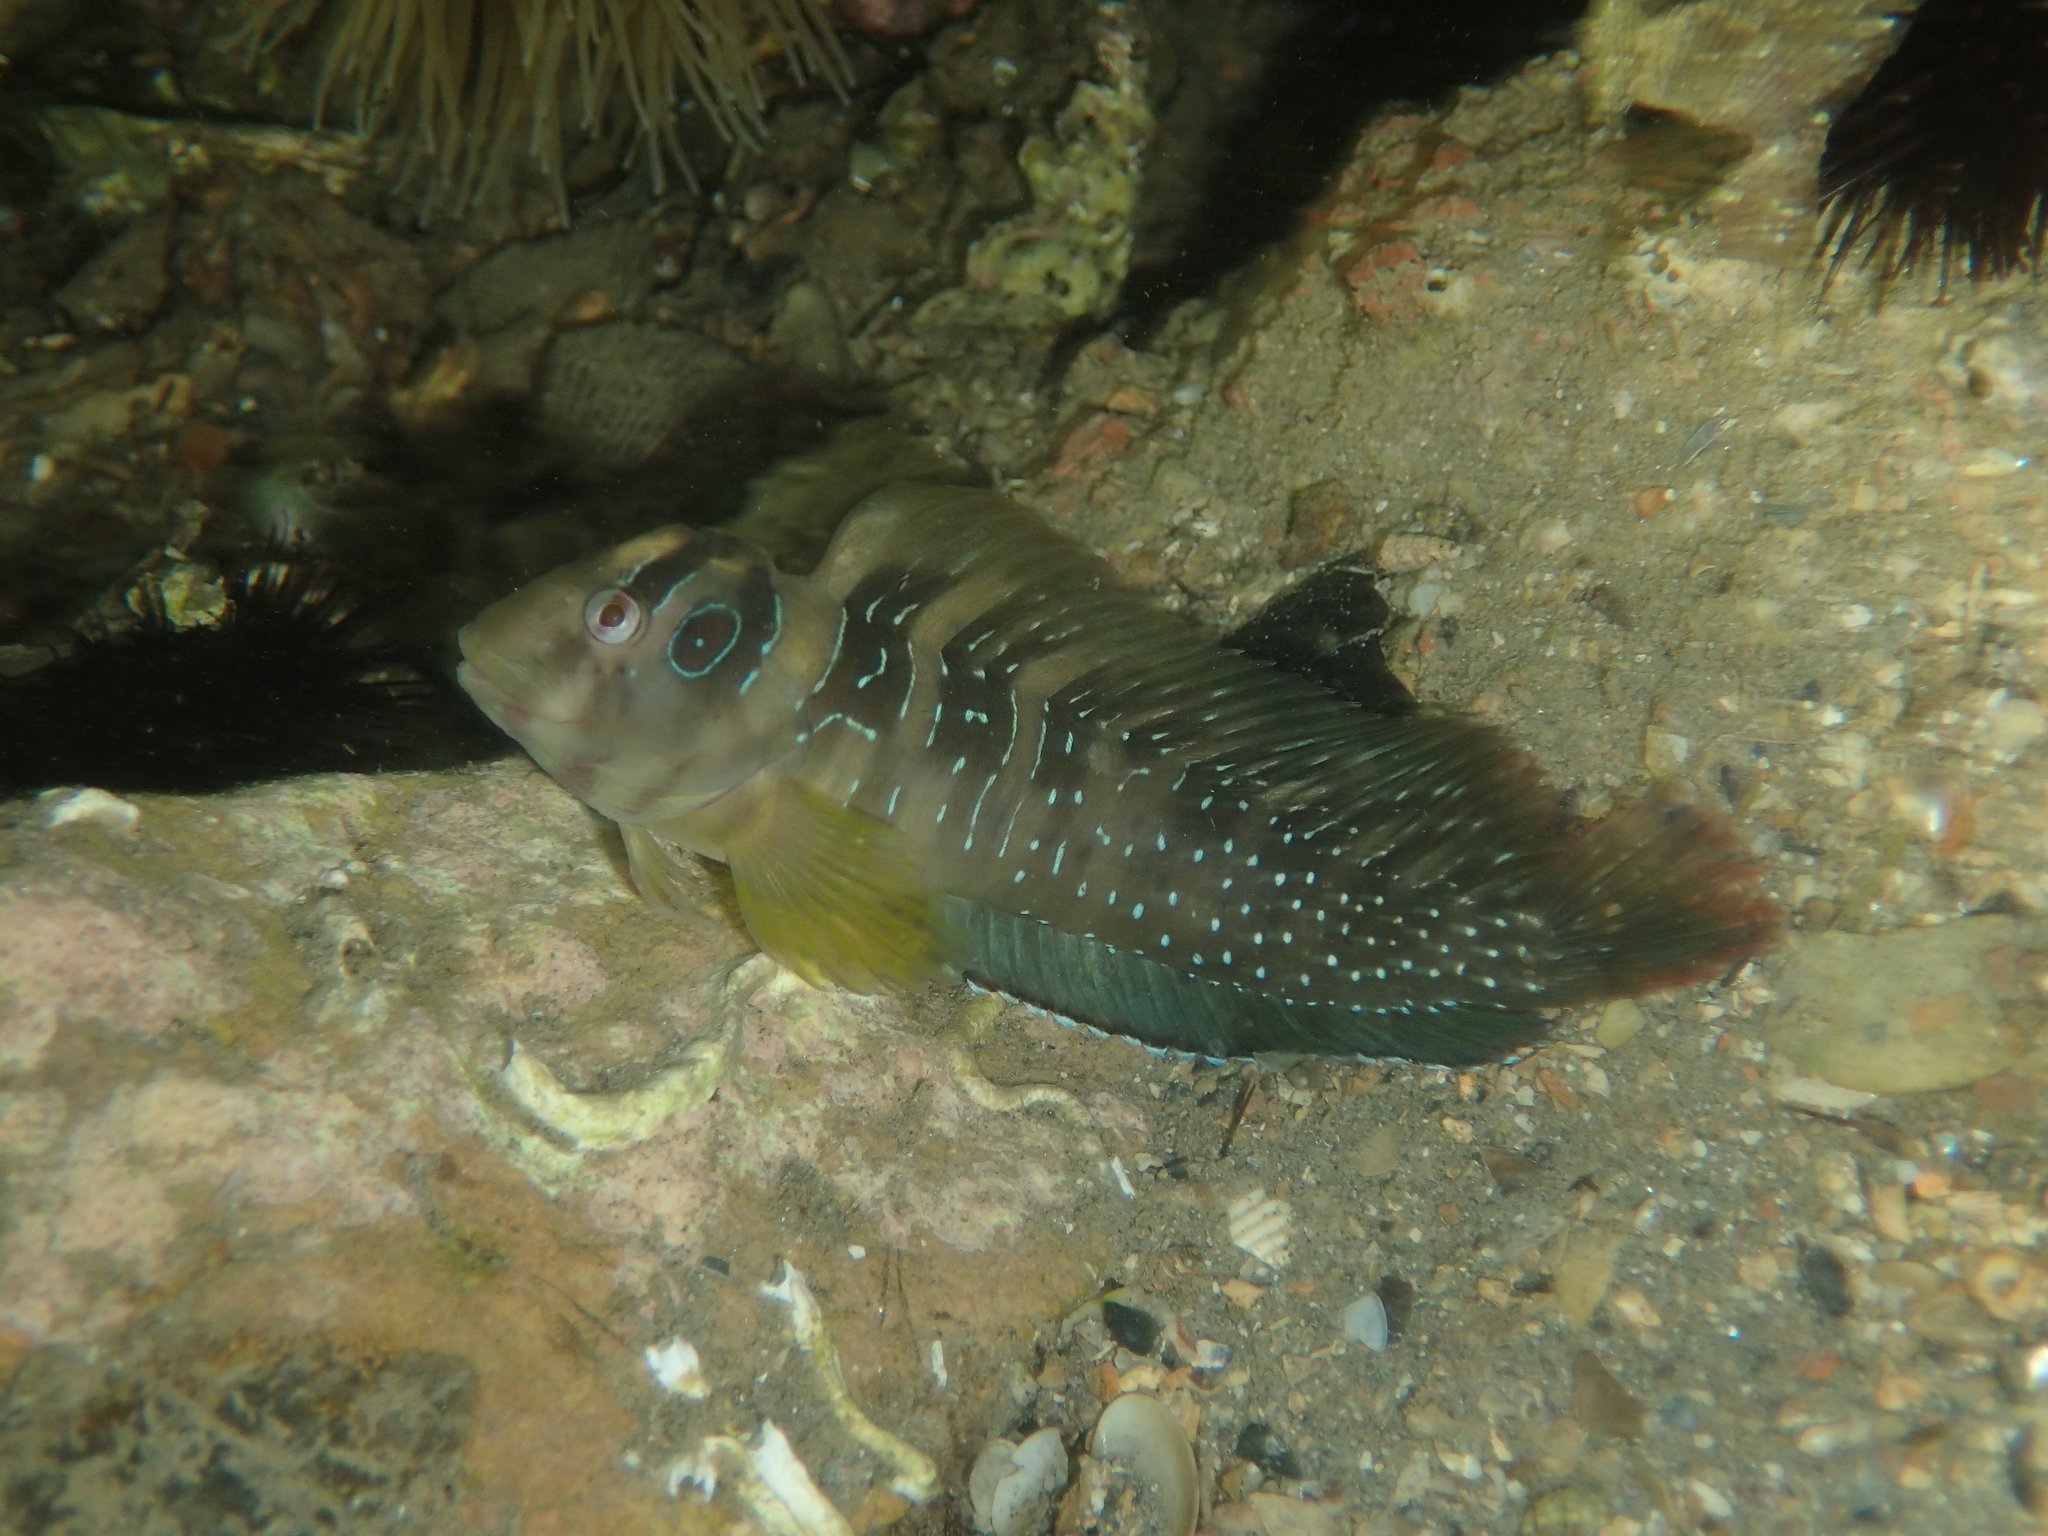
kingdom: Animalia
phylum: Chordata
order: Perciformes
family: Blenniidae
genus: Salaria
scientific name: Salaria pavo
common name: Peacock blenny
